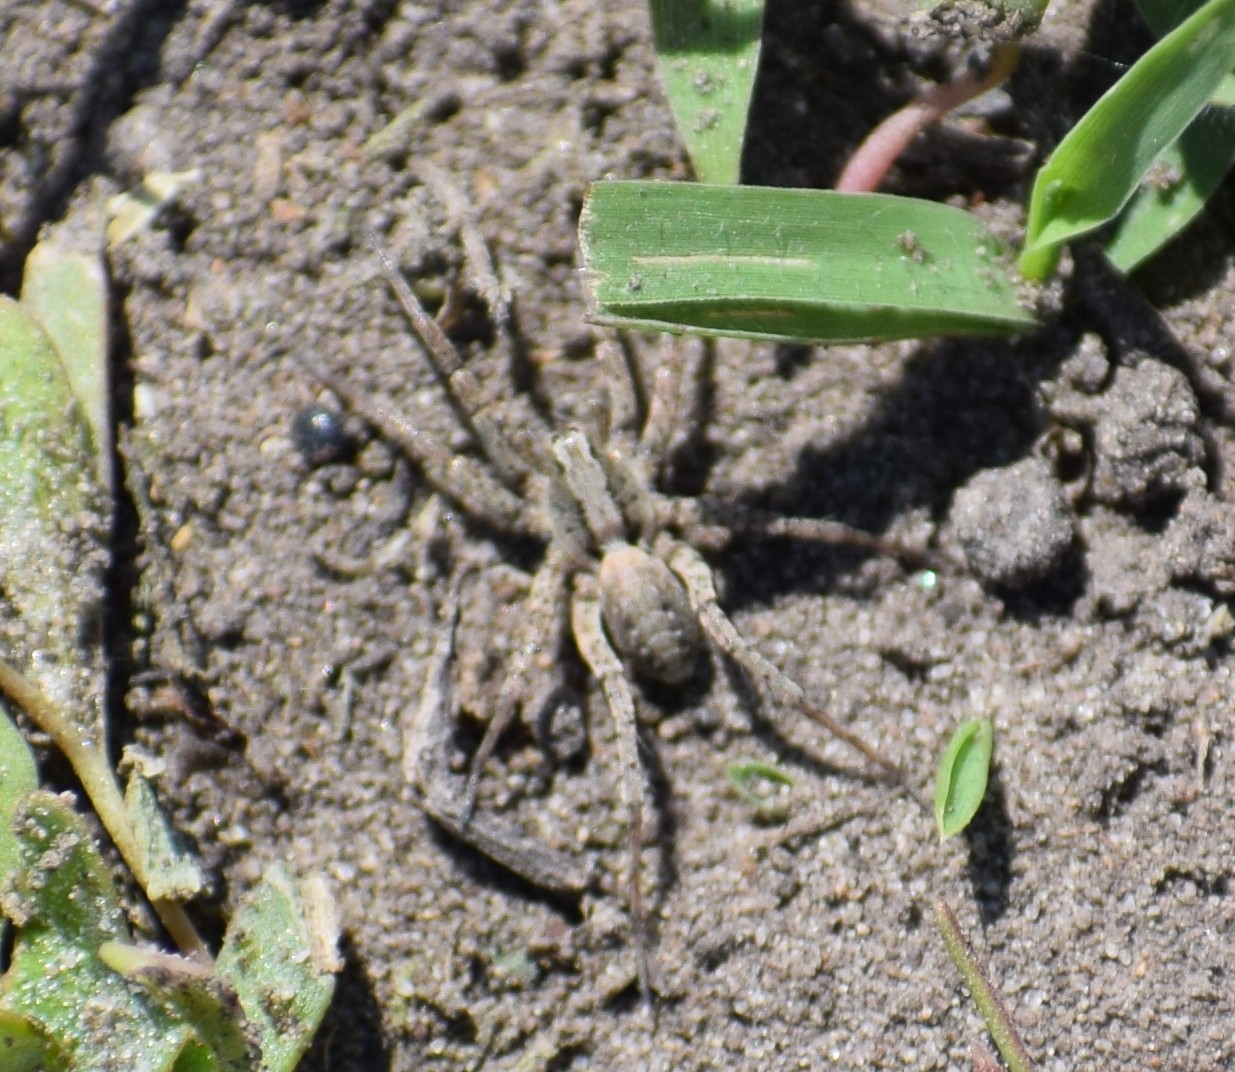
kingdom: Animalia
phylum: Arthropoda
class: Arachnida
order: Araneae
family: Lycosidae
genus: Xerolycosa
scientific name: Xerolycosa miniata
